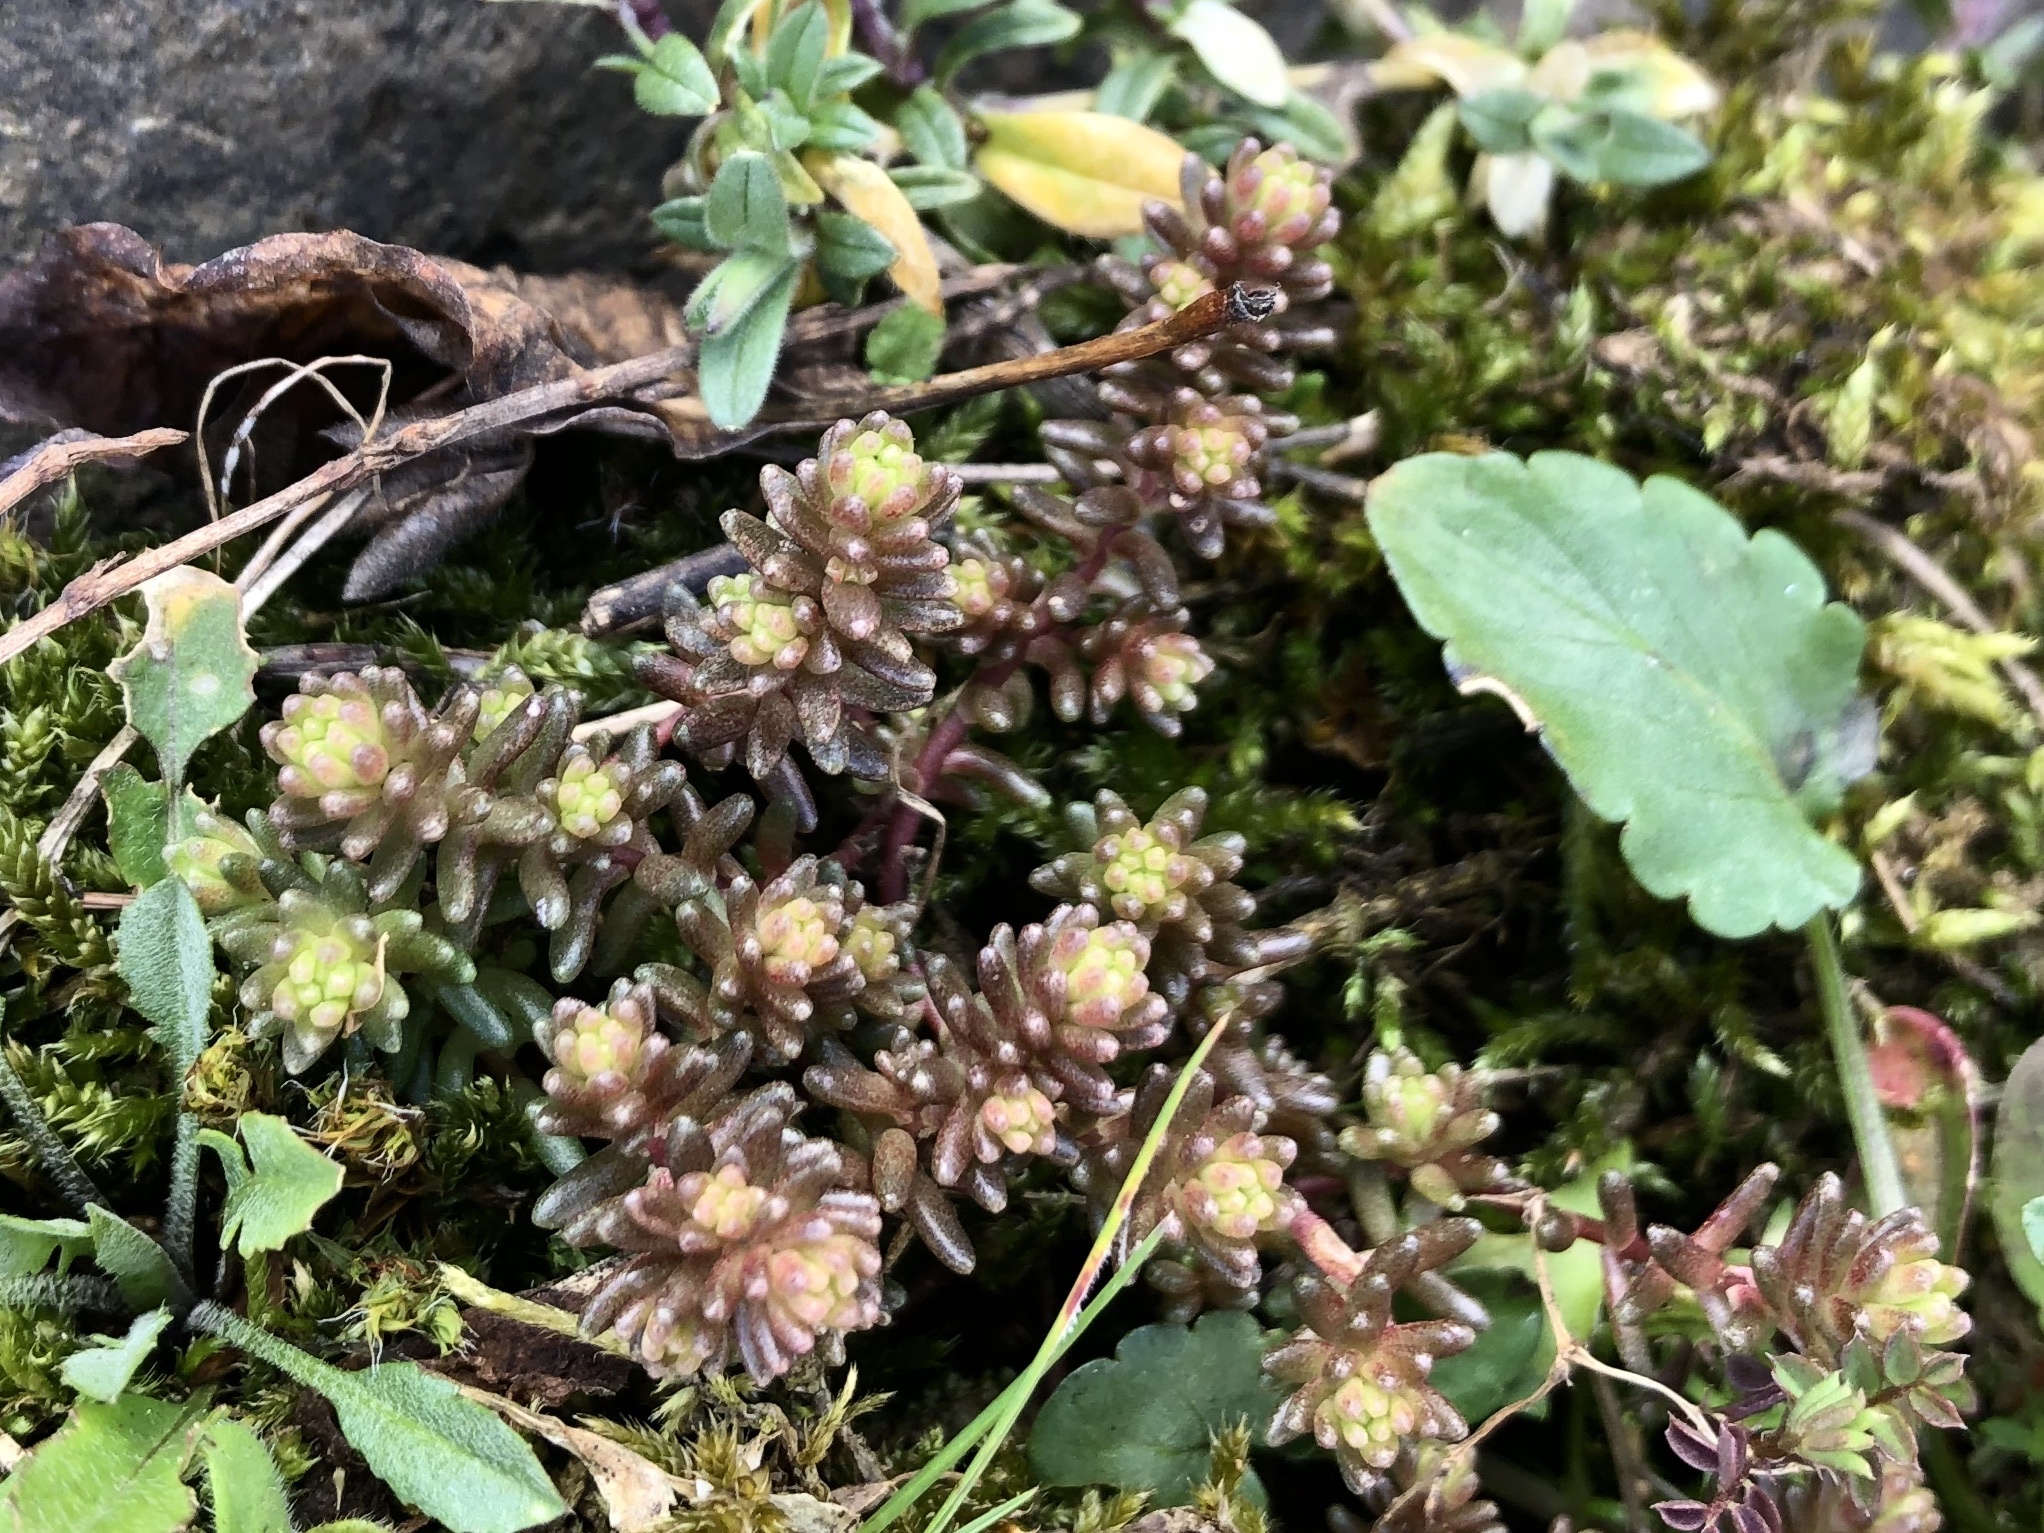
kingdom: Plantae
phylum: Tracheophyta
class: Magnoliopsida
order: Saxifragales
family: Crassulaceae
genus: Sedum
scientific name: Sedum sexangulare
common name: Tasteless stonecrop
